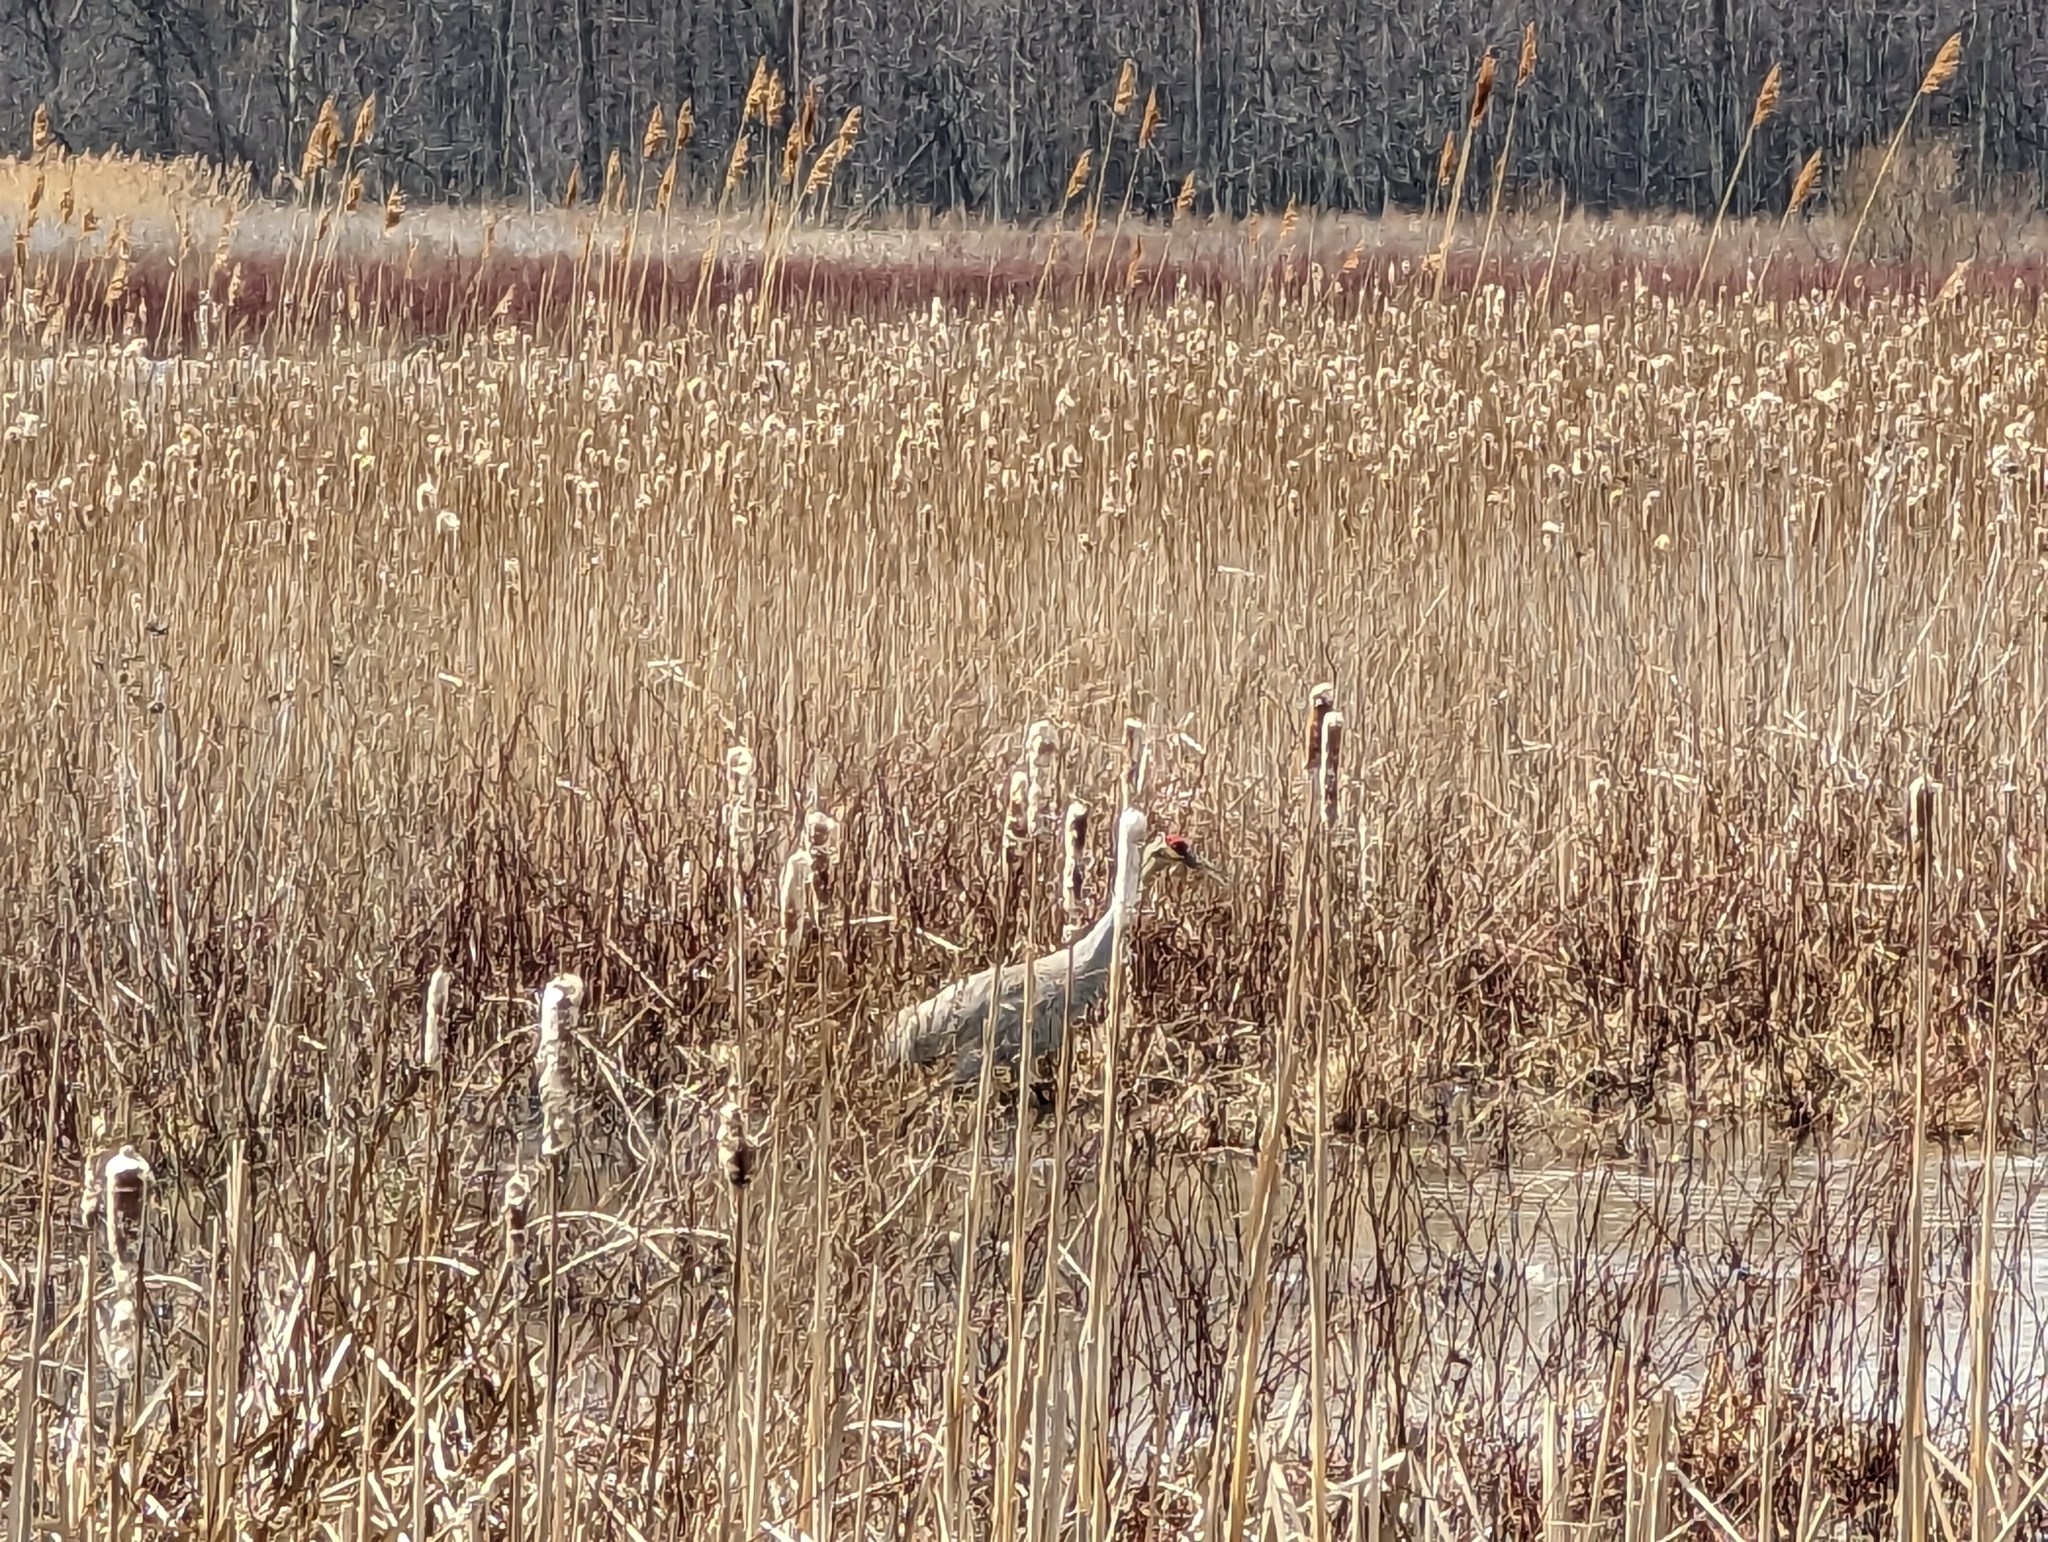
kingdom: Animalia
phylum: Chordata
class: Aves
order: Gruiformes
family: Gruidae
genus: Grus
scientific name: Grus canadensis
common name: Sandhill crane
